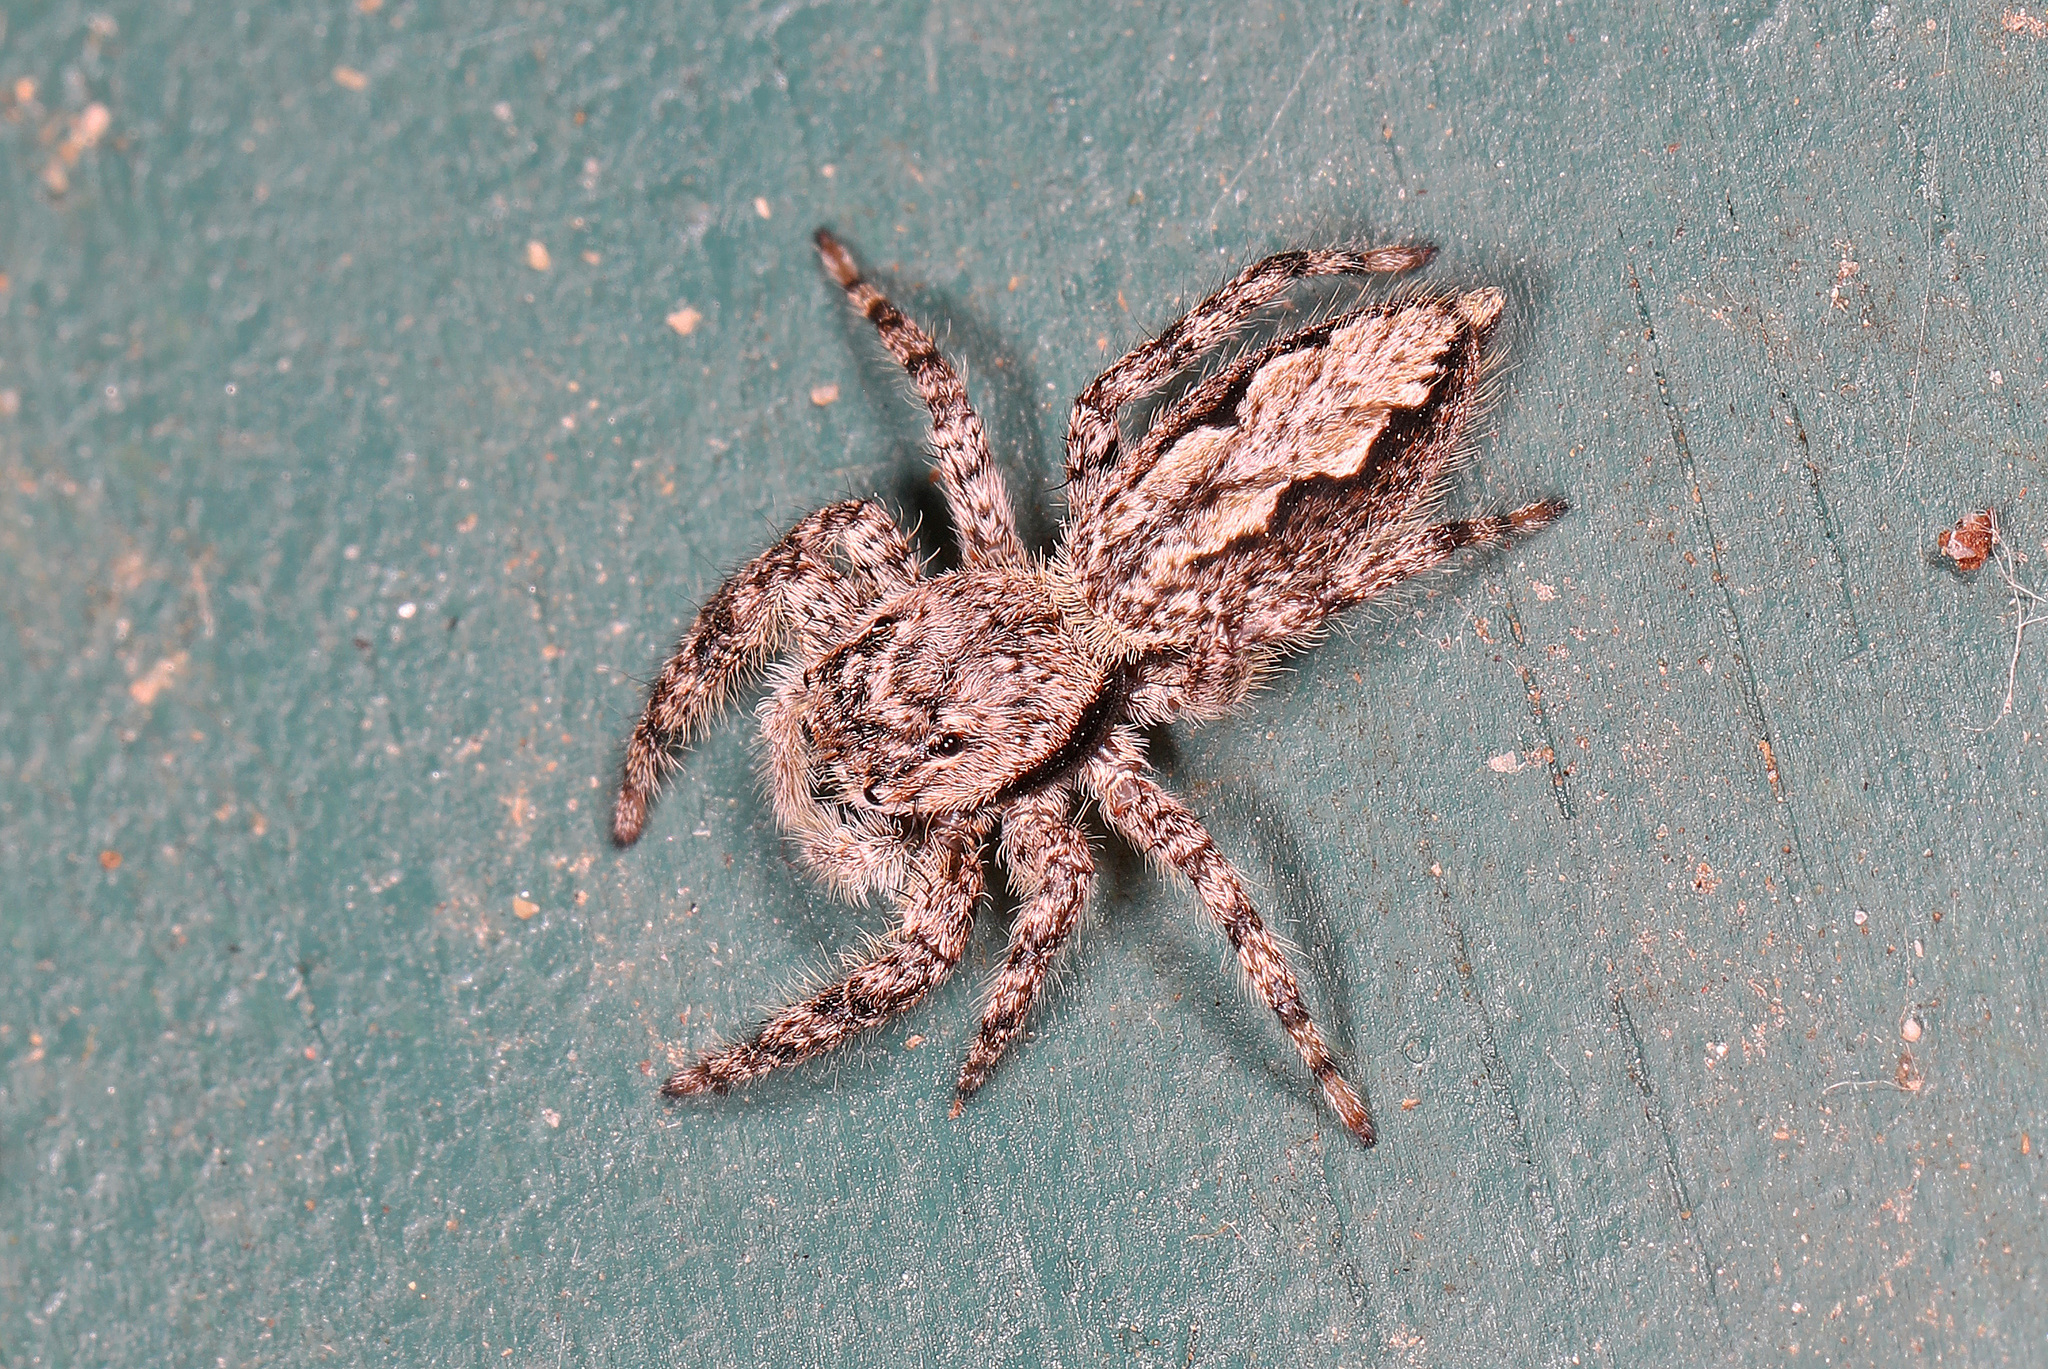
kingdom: Animalia
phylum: Arthropoda
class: Arachnida
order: Araneae
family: Salticidae
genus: Platycryptus
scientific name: Platycryptus undatus
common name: Tan jumping spider
